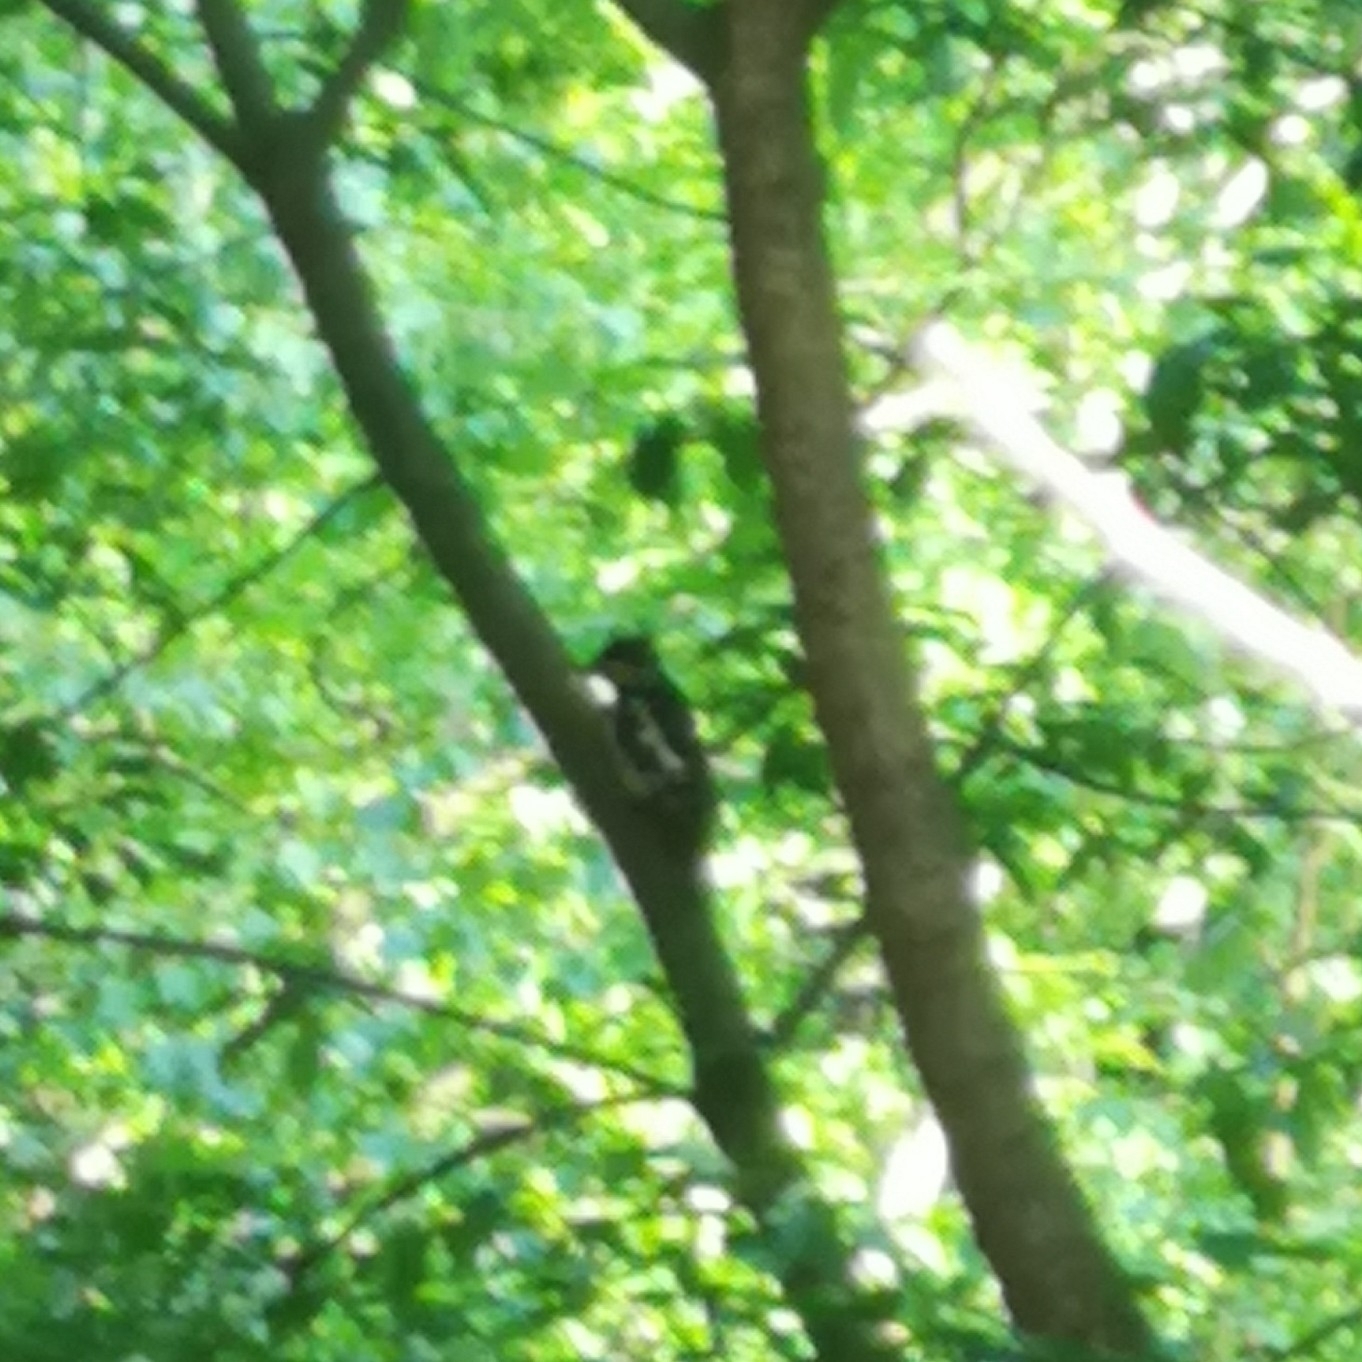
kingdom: Animalia
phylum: Chordata
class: Aves
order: Piciformes
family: Picidae
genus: Dendrocopos
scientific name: Dendrocopos major
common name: Great spotted woodpecker
